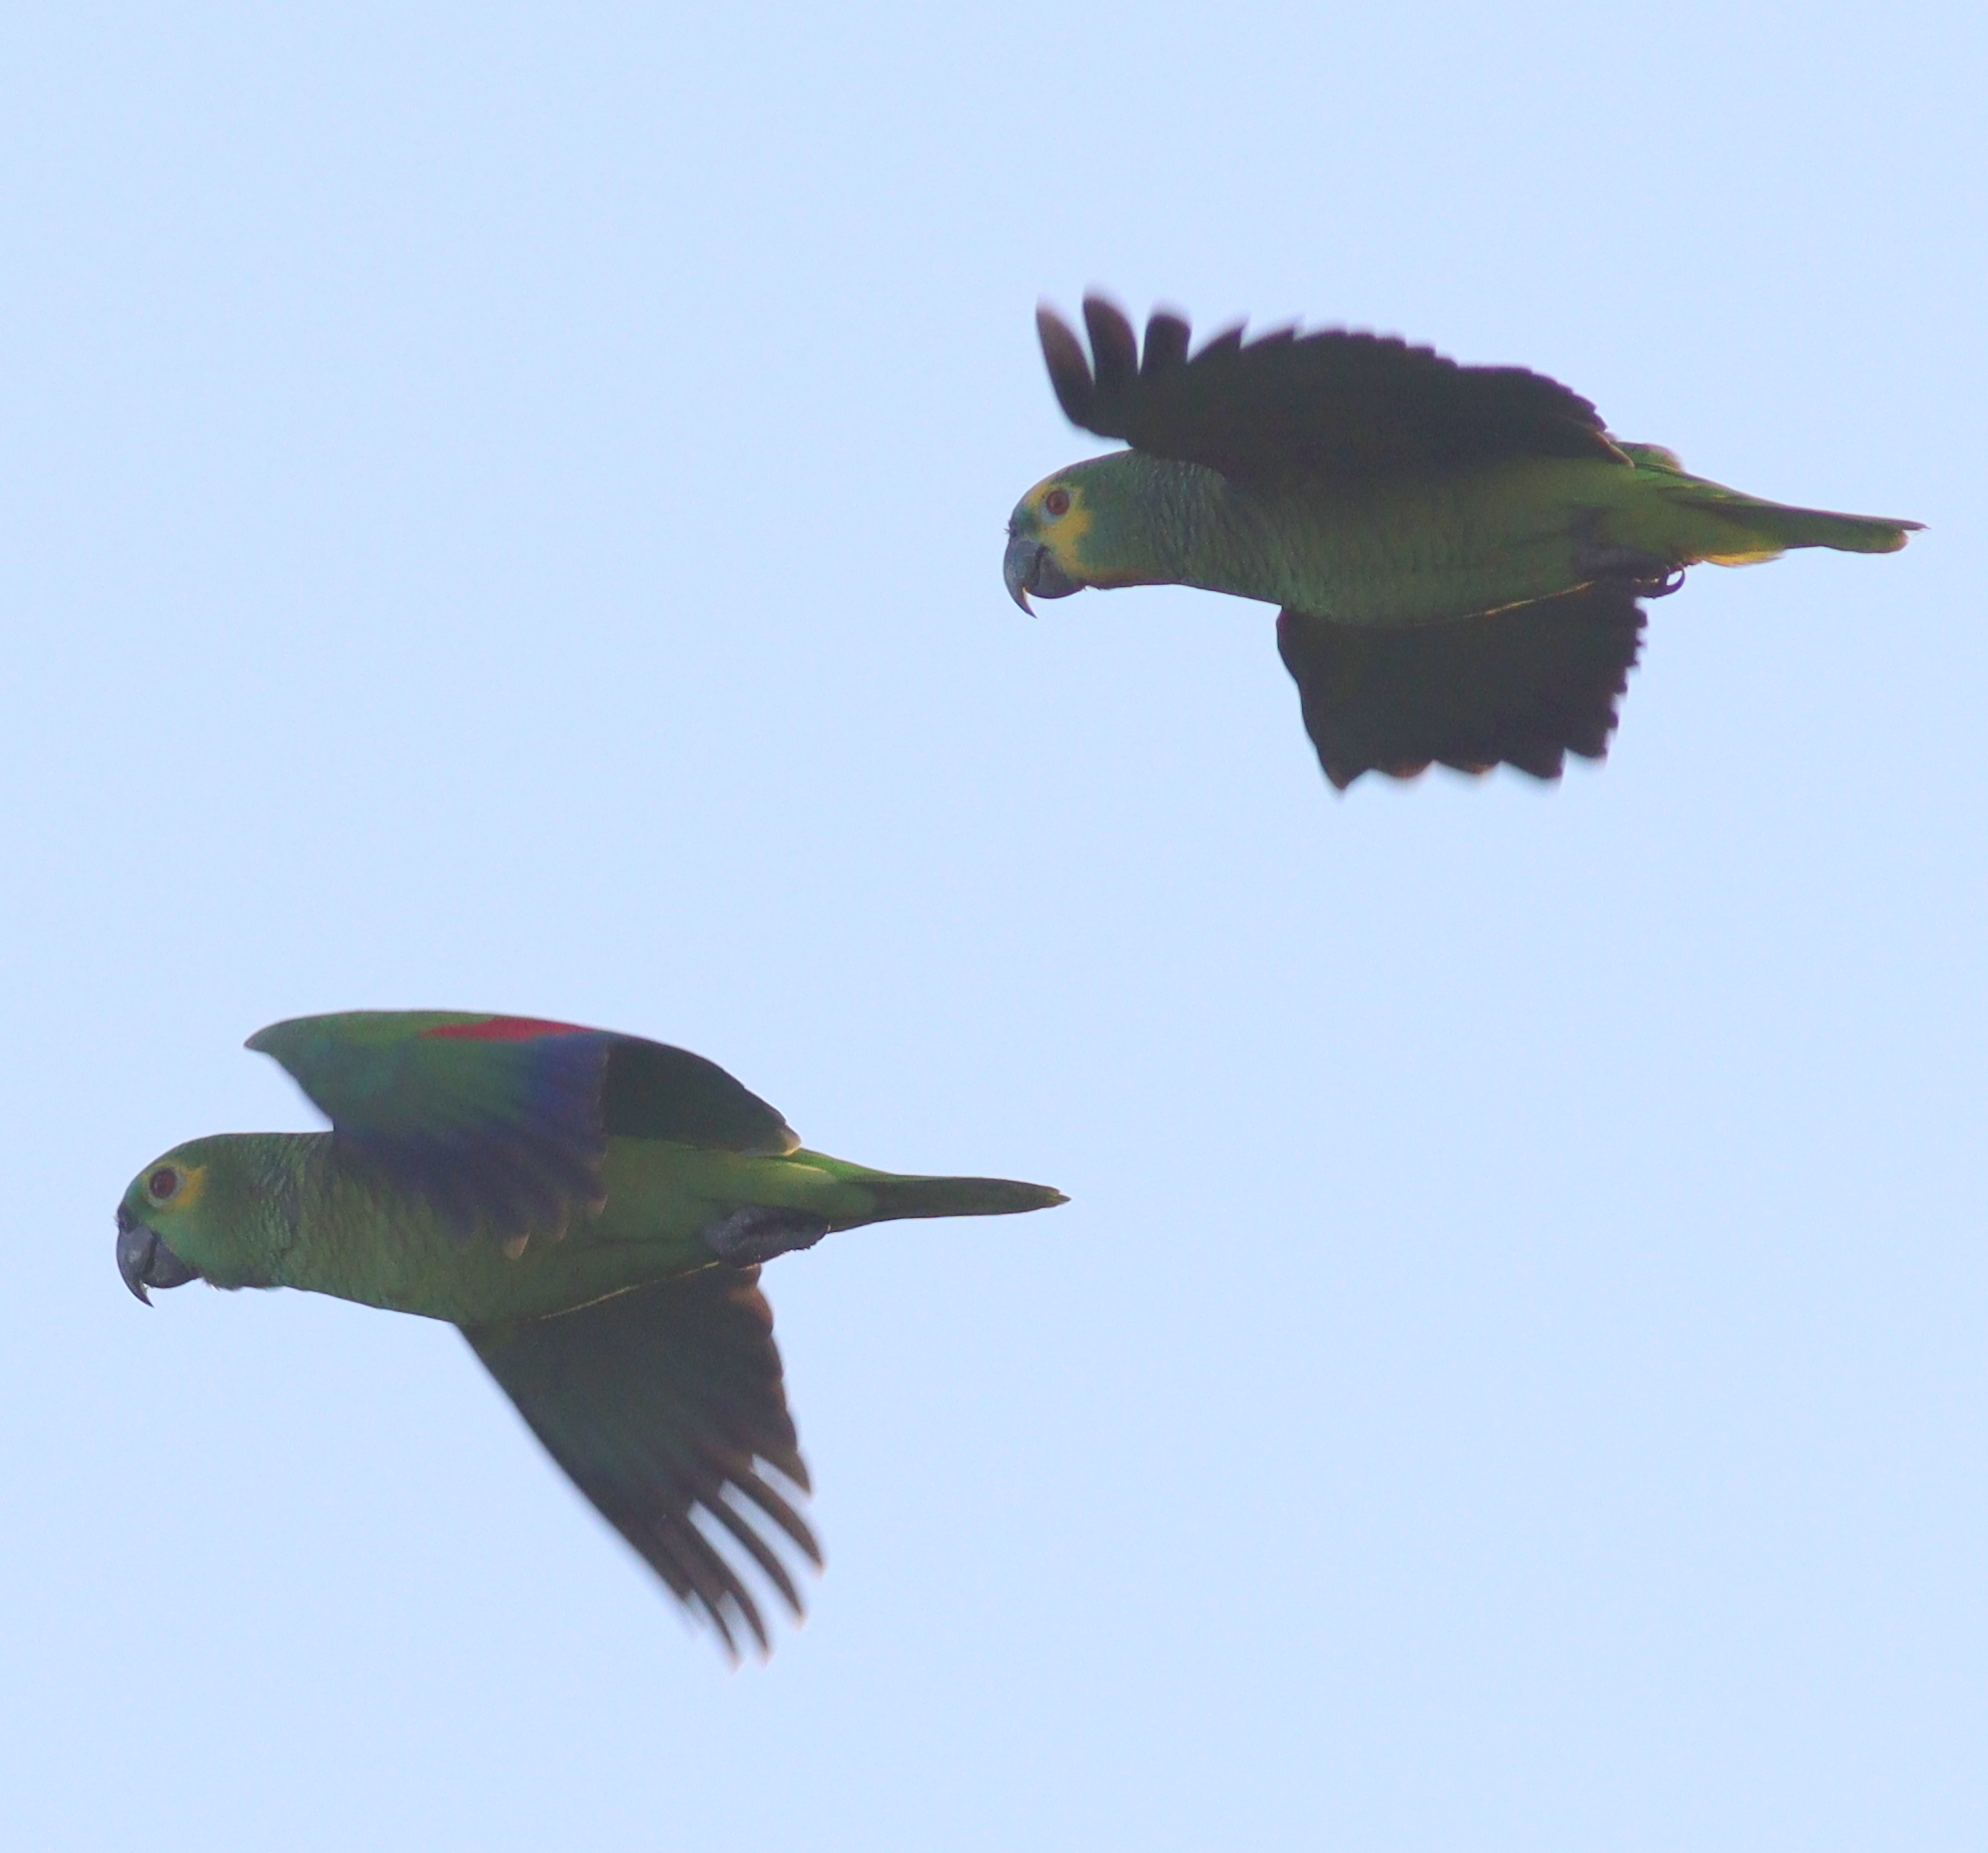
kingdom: Animalia
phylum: Chordata
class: Aves
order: Psittaciformes
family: Psittacidae
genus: Amazona
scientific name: Amazona aestiva
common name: Turquoise-fronted amazon
